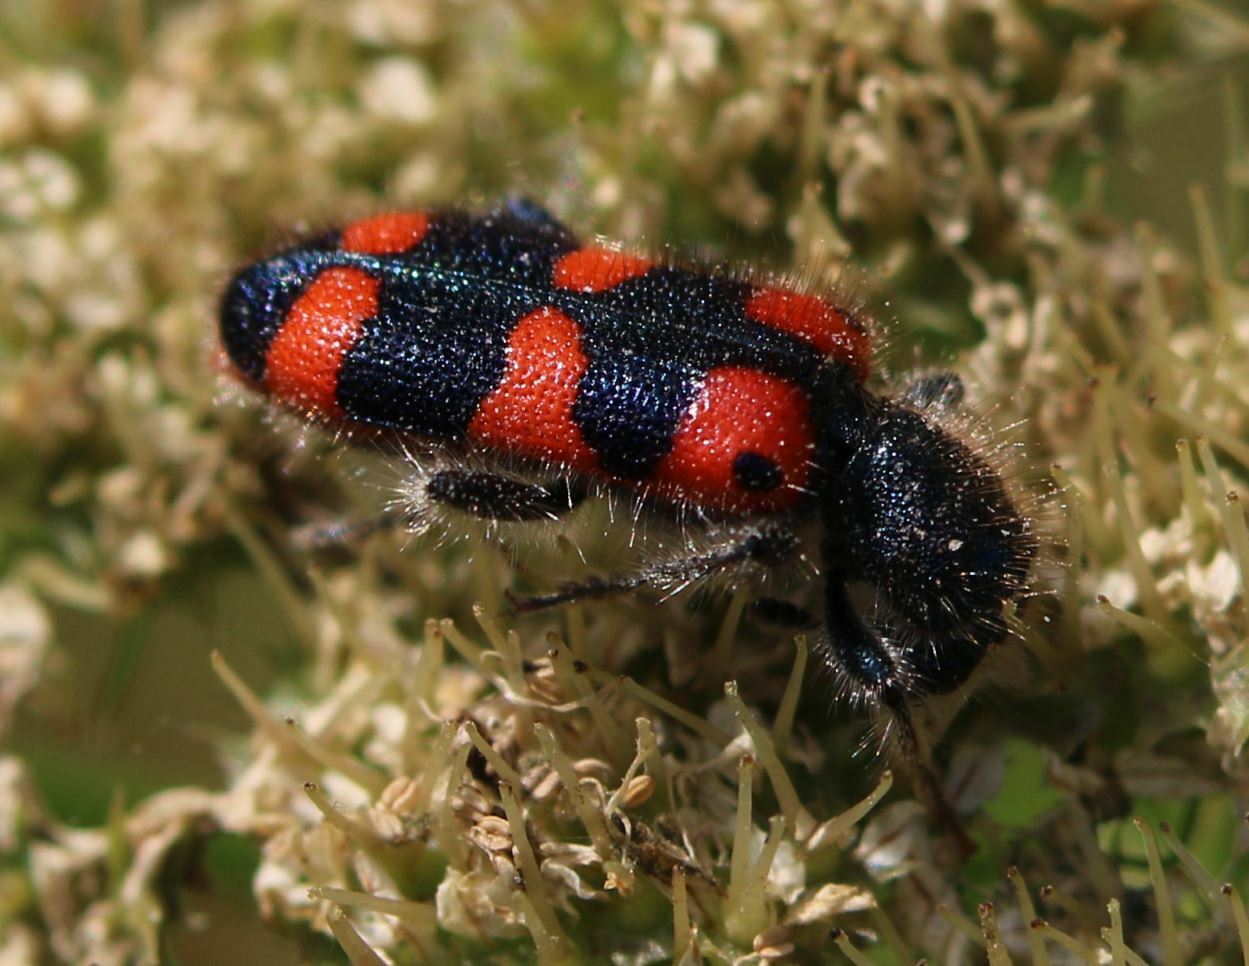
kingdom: Animalia
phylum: Arthropoda
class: Insecta
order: Coleoptera
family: Cleridae
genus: Trichodes
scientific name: Trichodes leucopsideus
